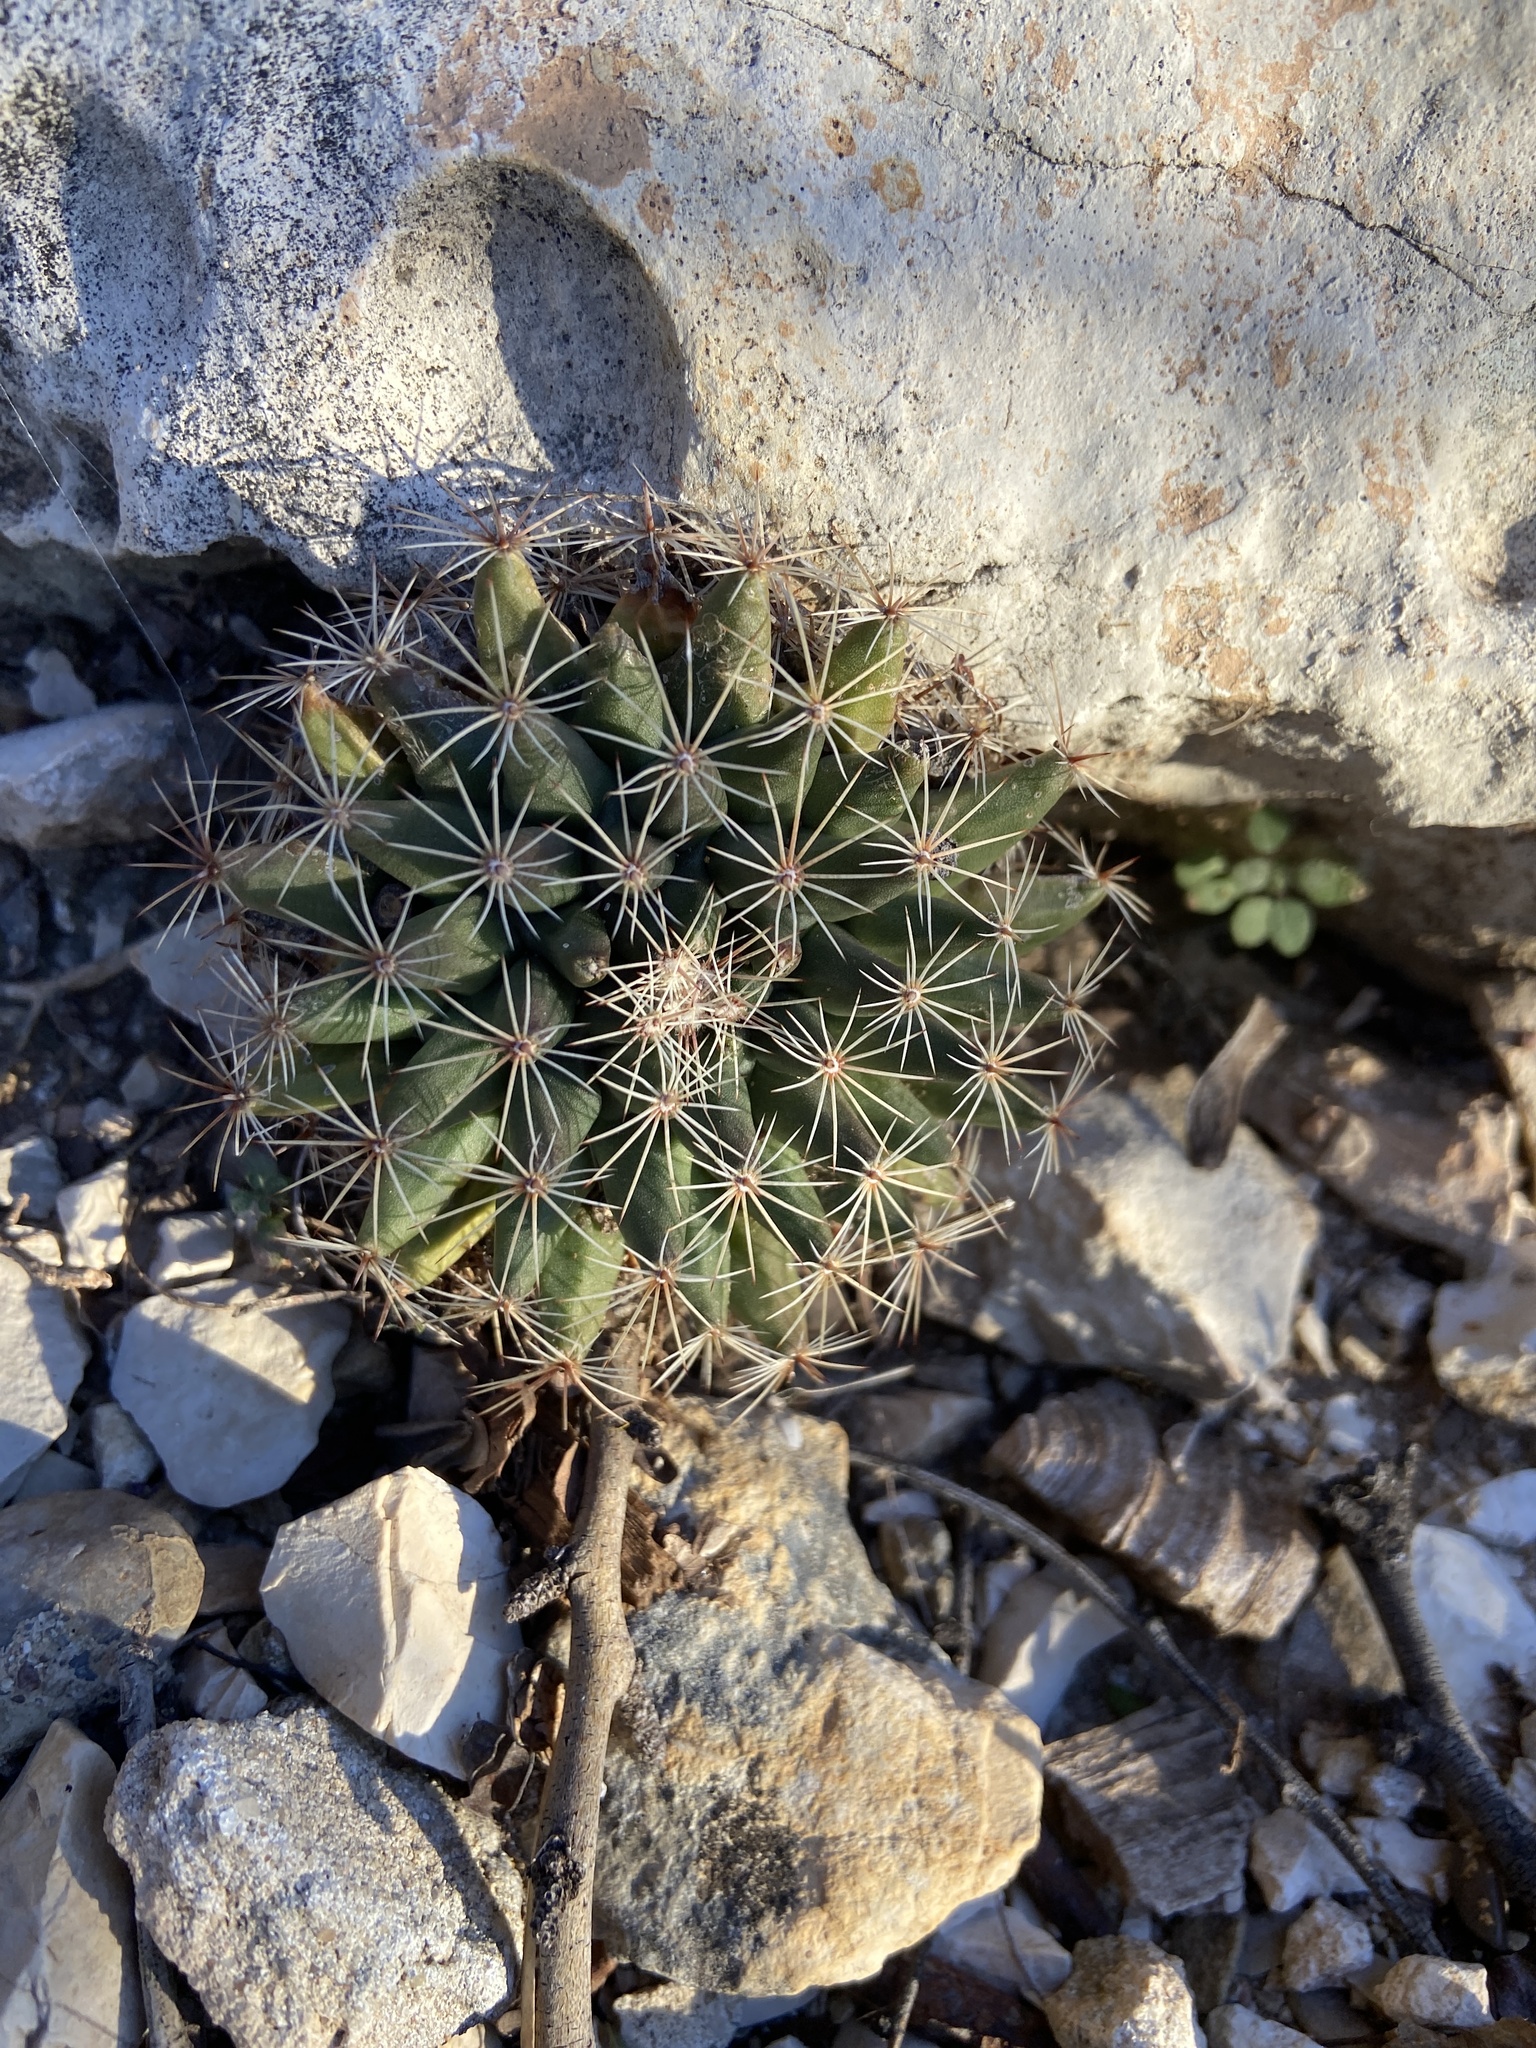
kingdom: Plantae
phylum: Tracheophyta
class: Magnoliopsida
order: Caryophyllales
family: Cactaceae
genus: Mammillaria
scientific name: Mammillaria heyderi
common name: Little nipple cactus
